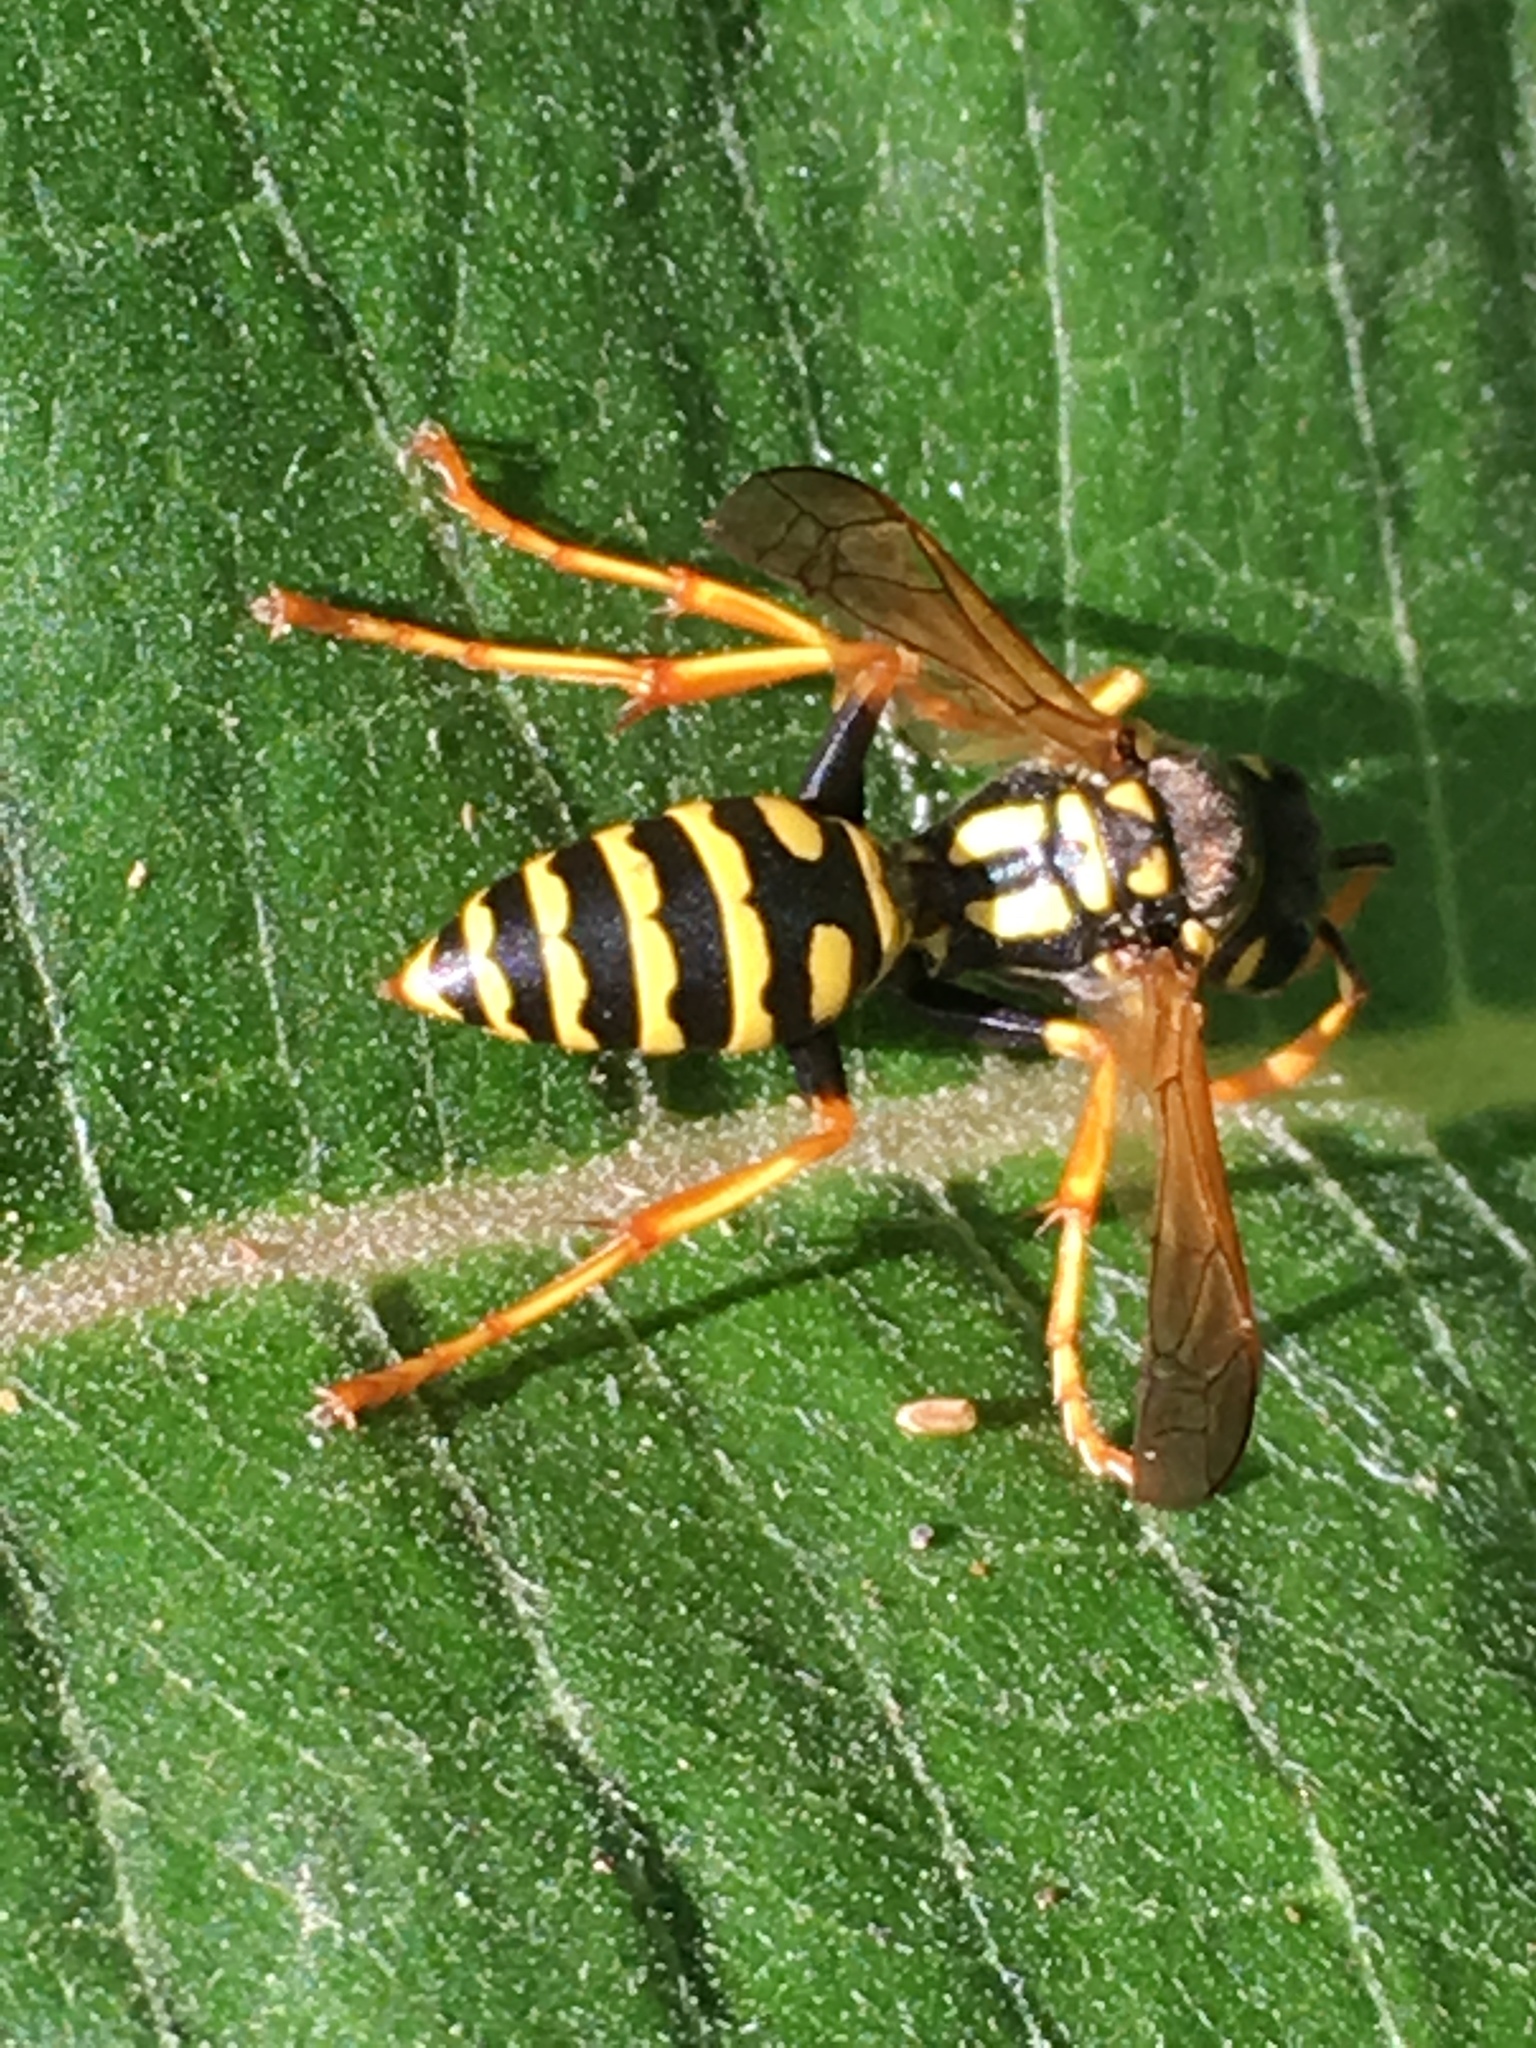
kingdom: Animalia
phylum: Arthropoda
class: Insecta
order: Hymenoptera
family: Eumenidae
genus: Polistes
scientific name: Polistes dominula
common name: Paper wasp
